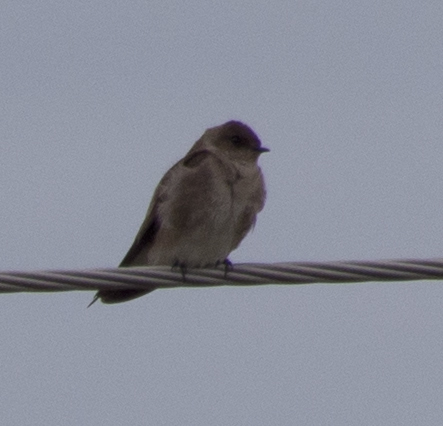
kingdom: Animalia
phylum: Chordata
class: Aves
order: Passeriformes
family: Hirundinidae
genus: Stelgidopteryx
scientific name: Stelgidopteryx serripennis
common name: Northern rough-winged swallow
